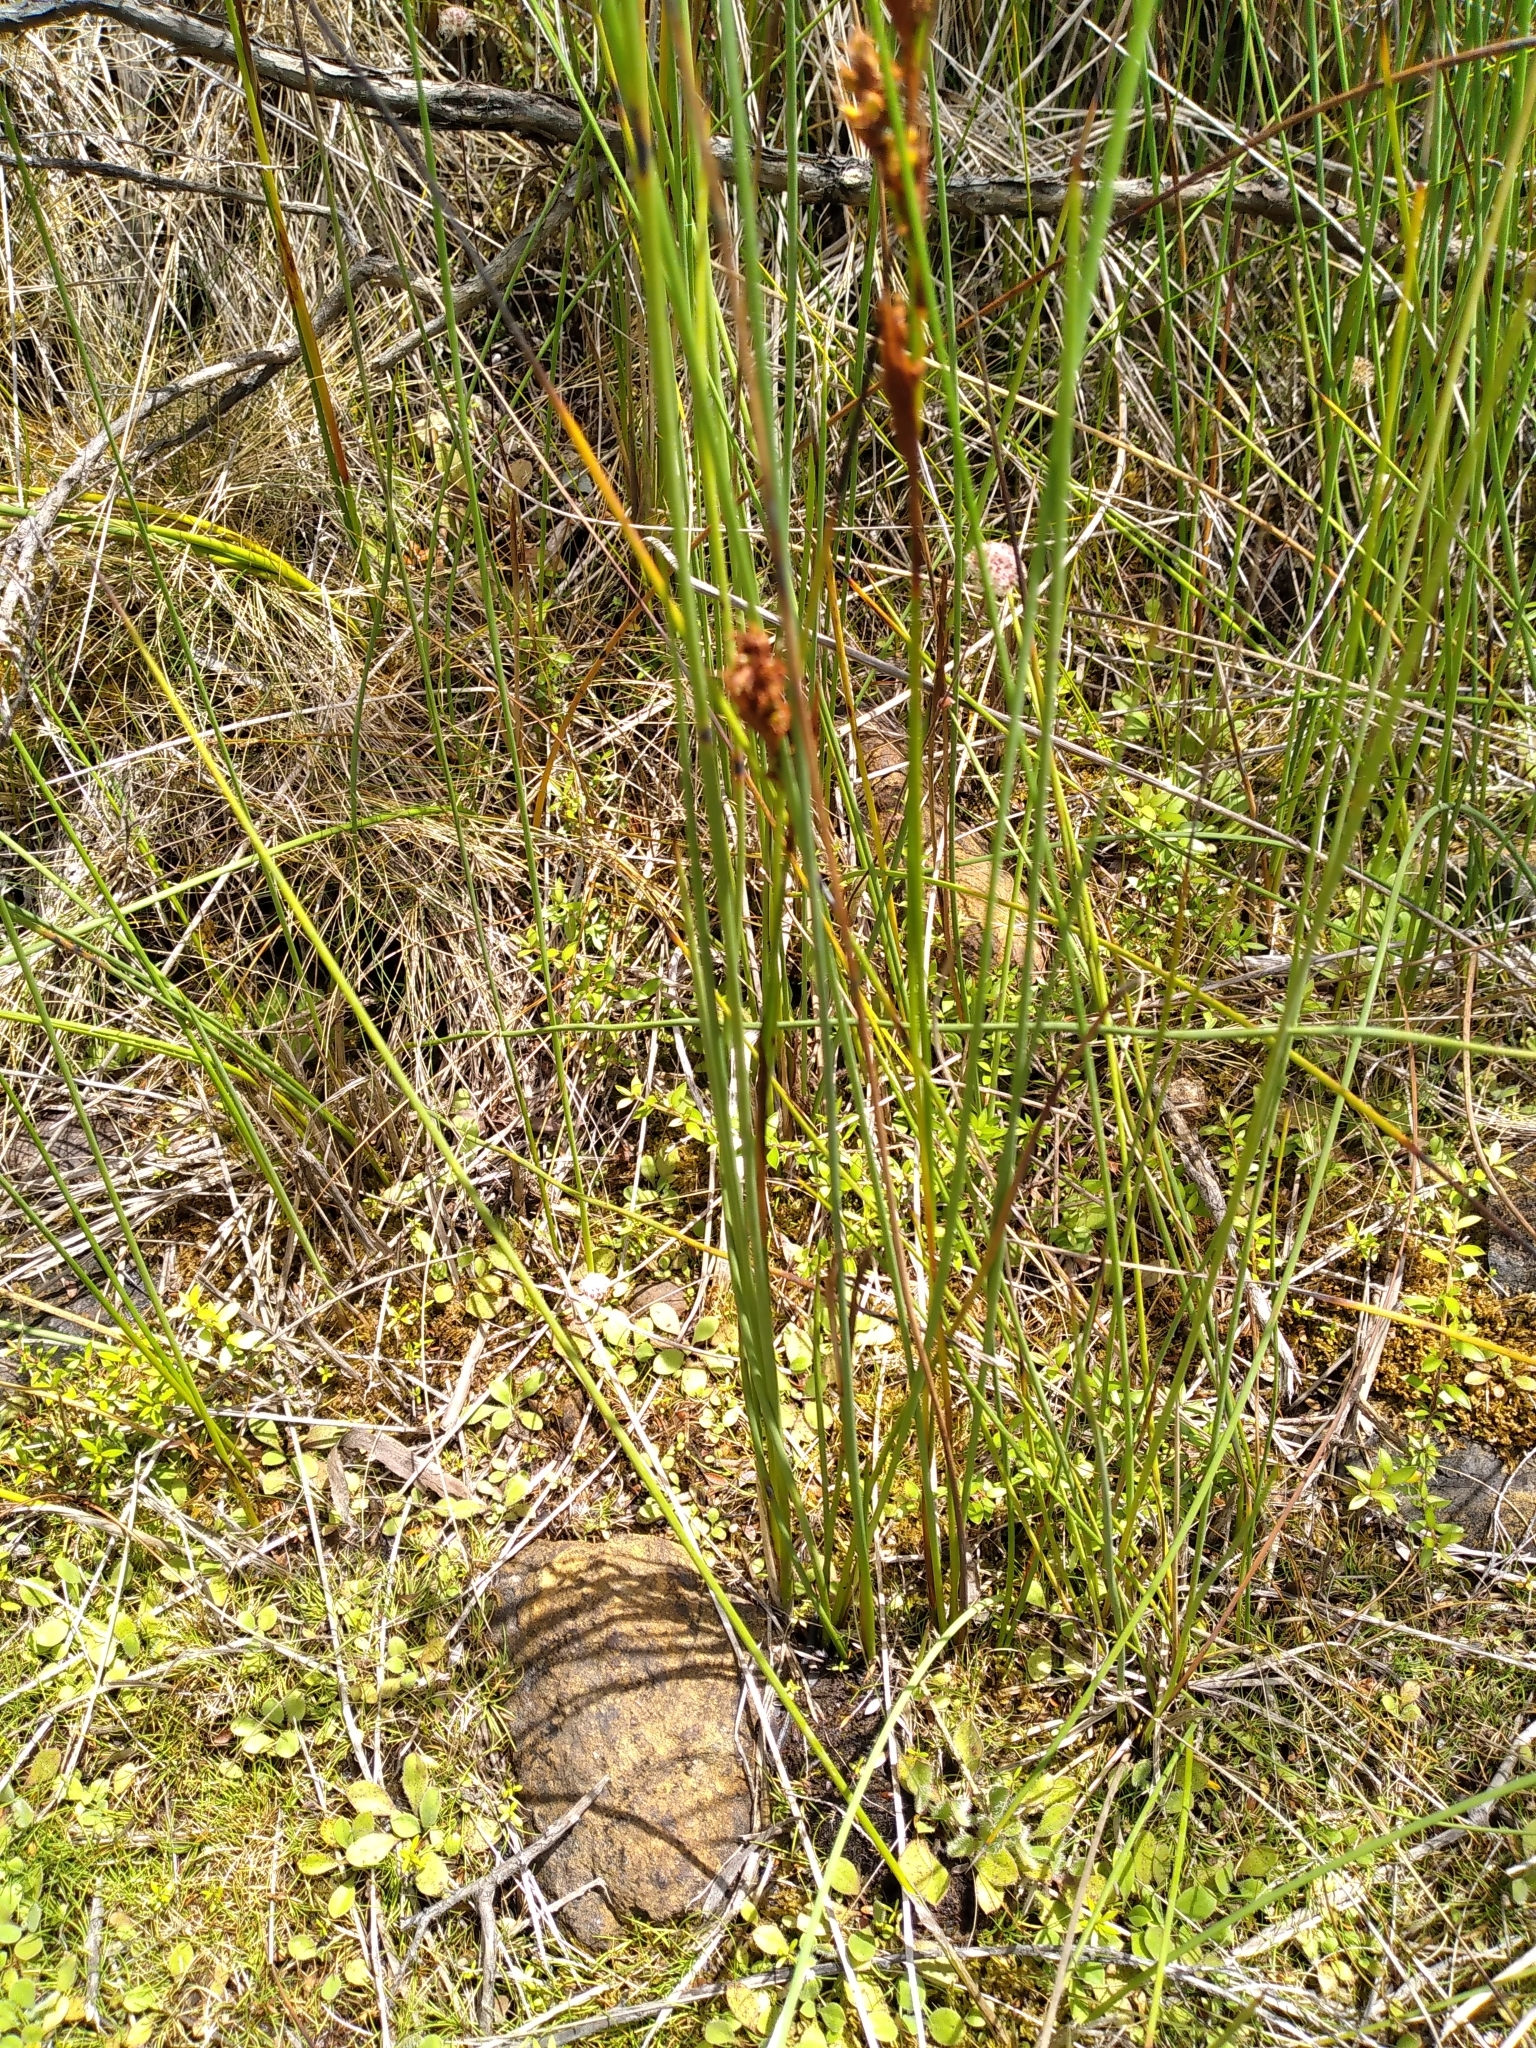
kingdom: Plantae
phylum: Tracheophyta
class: Liliopsida
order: Poales
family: Cyperaceae
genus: Machaerina
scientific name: Machaerina rubiginosa
